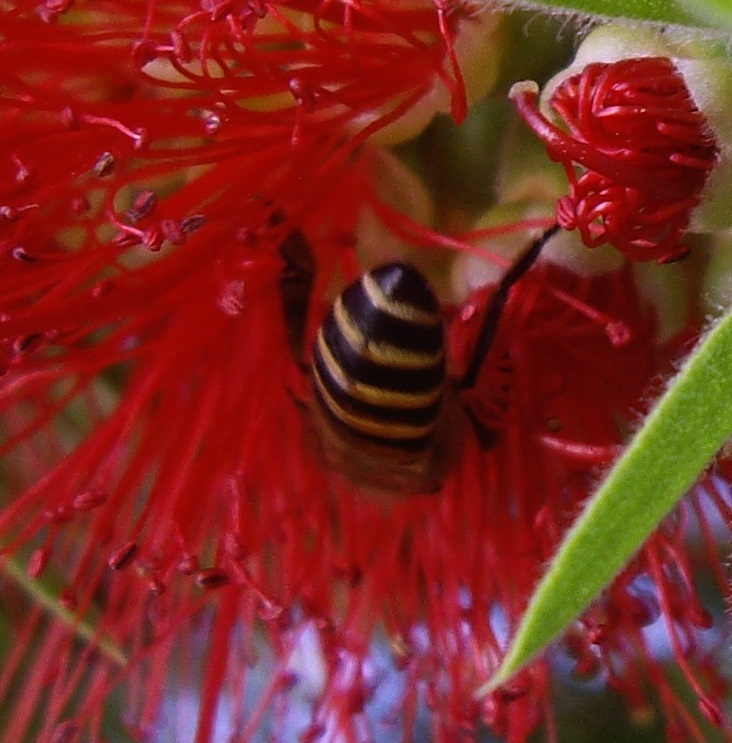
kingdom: Animalia
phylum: Arthropoda
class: Insecta
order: Hymenoptera
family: Apidae
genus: Apis
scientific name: Apis cerana
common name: Honey bee
